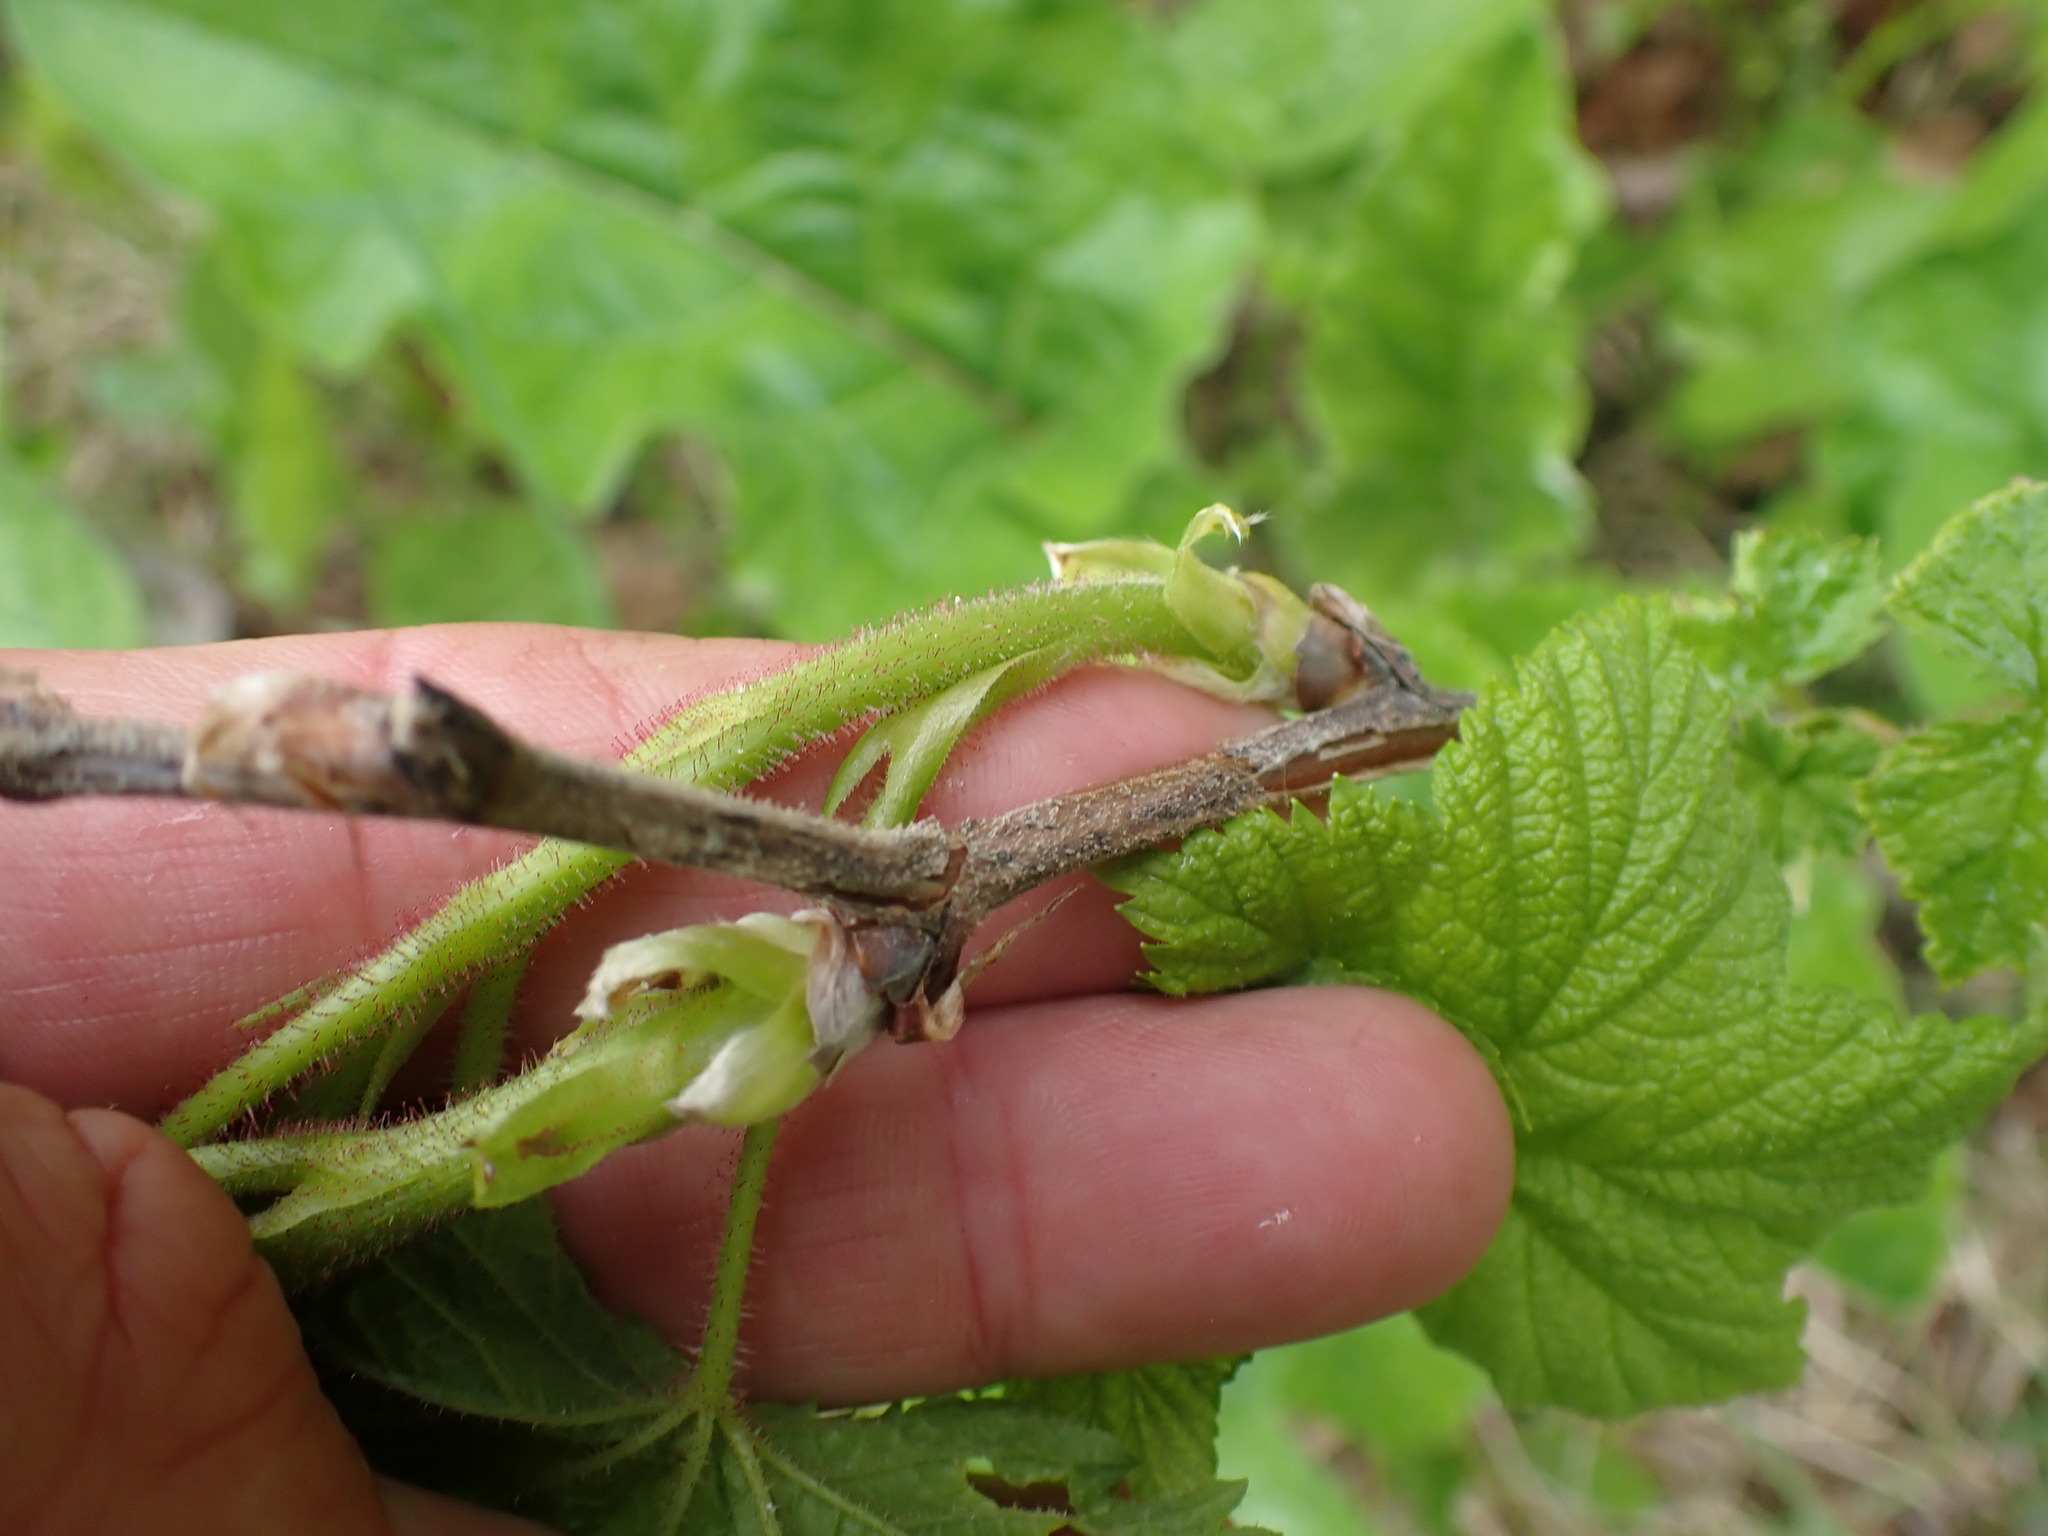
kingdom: Plantae
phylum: Tracheophyta
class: Magnoliopsida
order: Rosales
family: Rosaceae
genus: Rubus
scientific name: Rubus parviflorus
